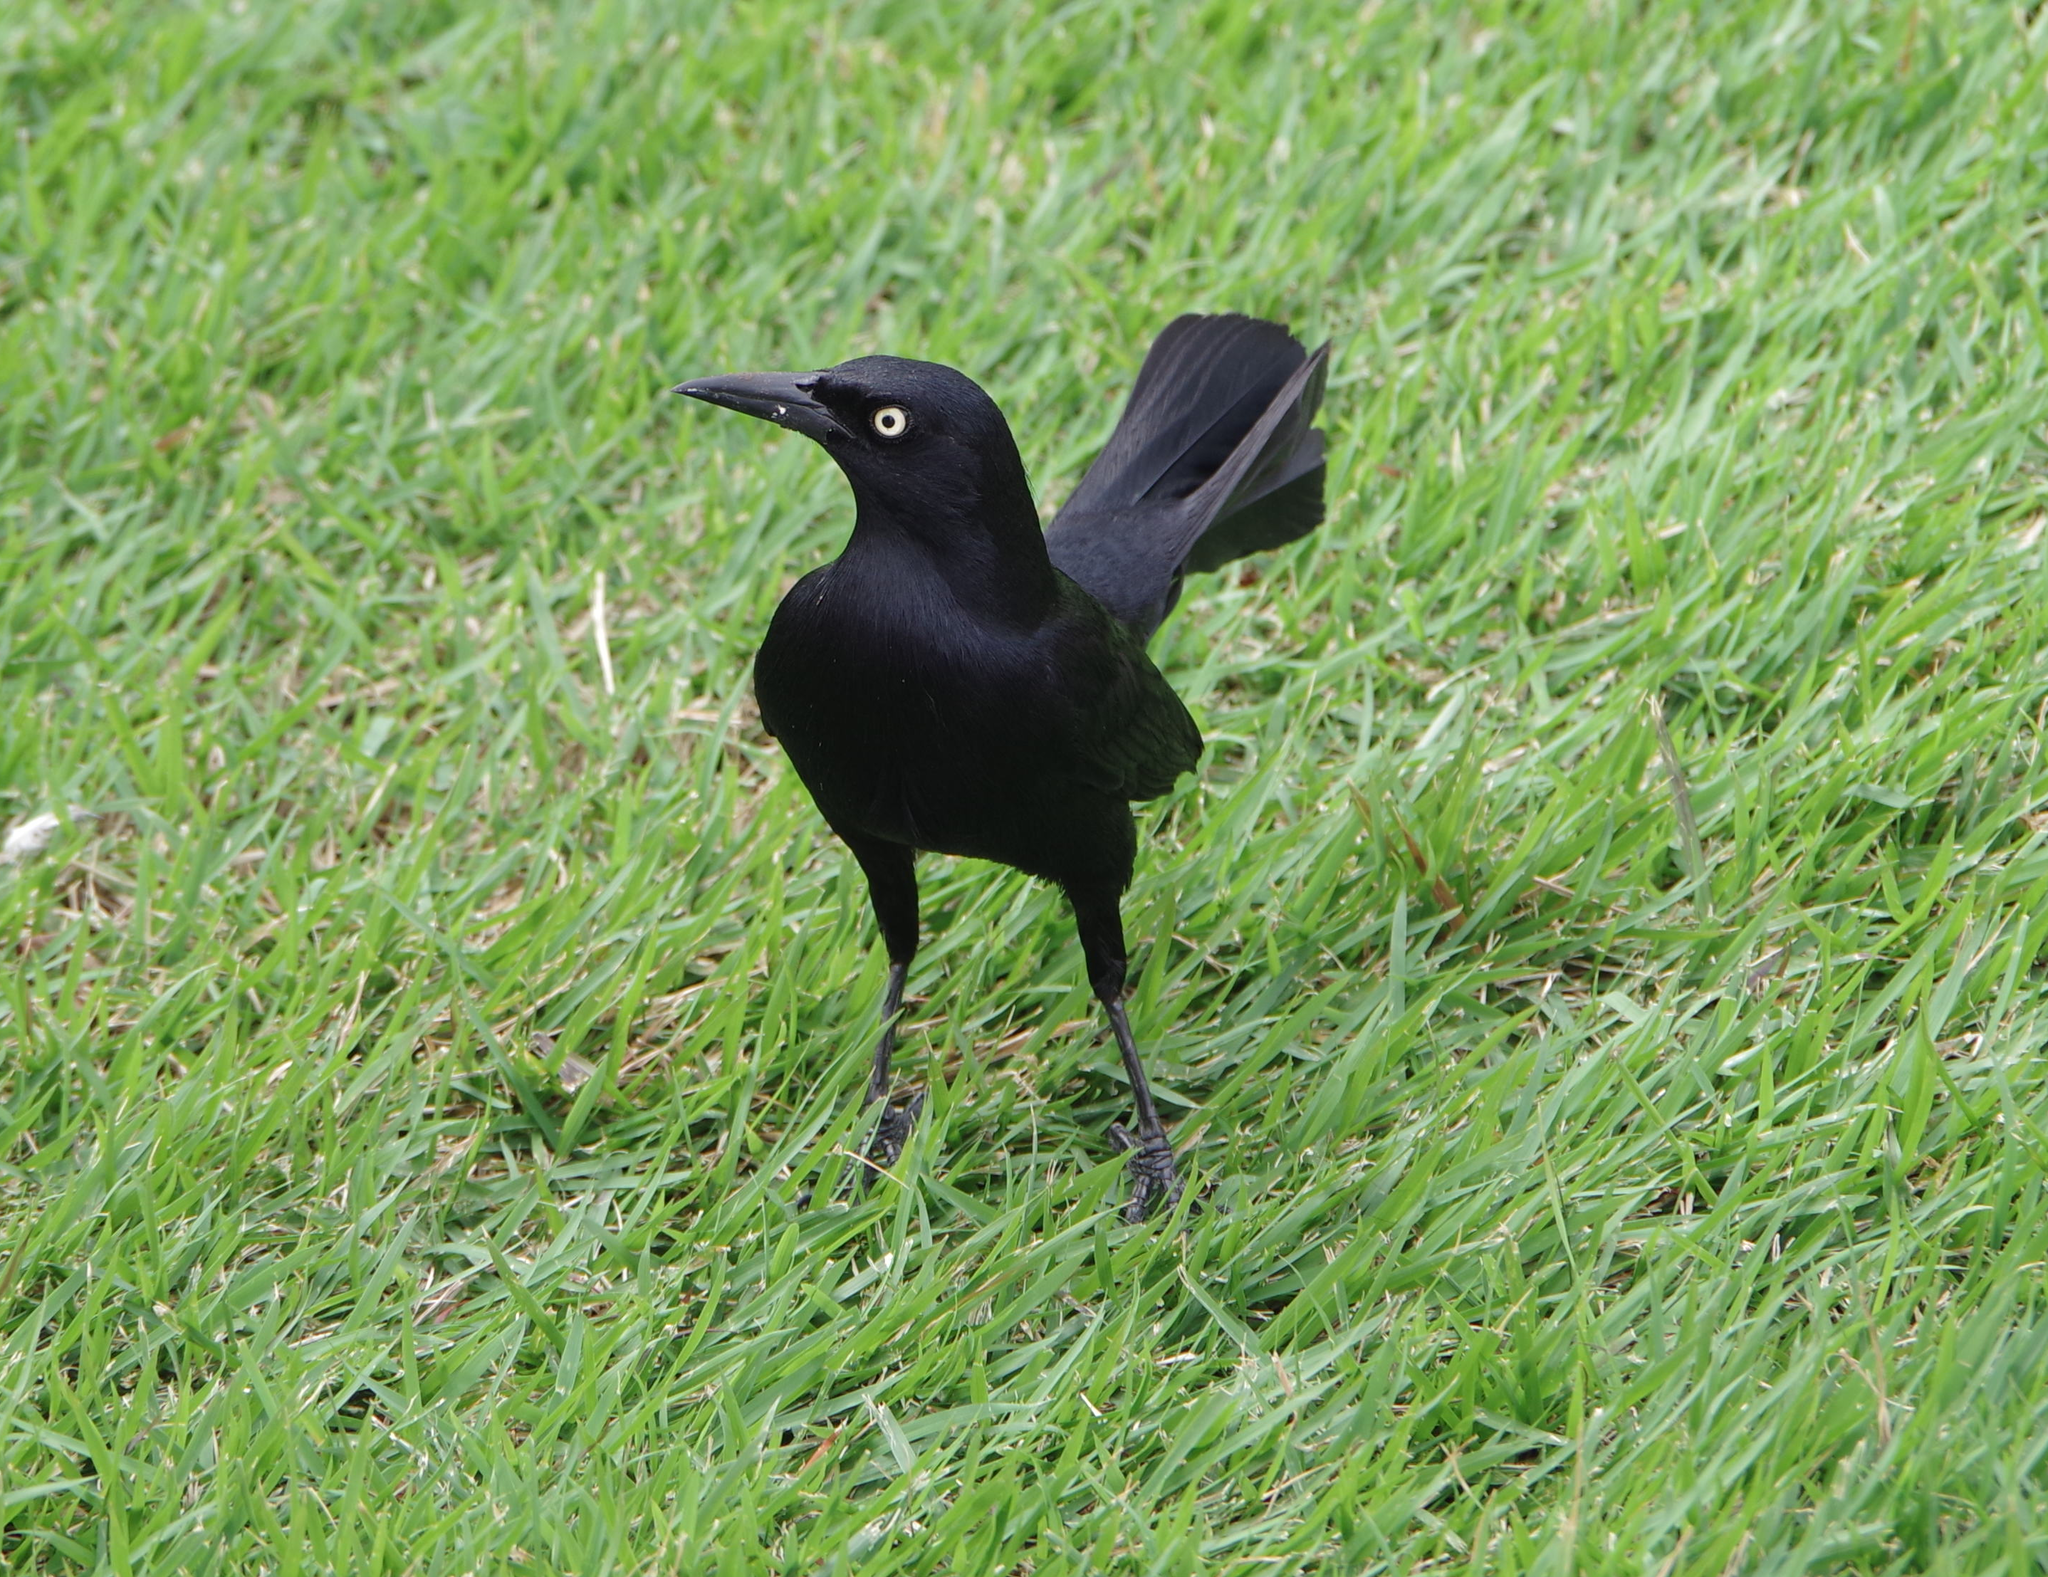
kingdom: Animalia
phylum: Chordata
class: Aves
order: Passeriformes
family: Icteridae
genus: Quiscalus
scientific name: Quiscalus niger
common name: Greater antillean grackle
